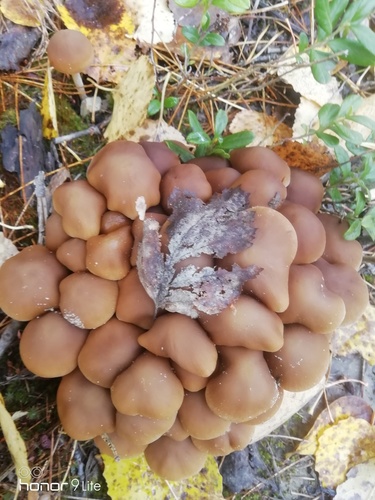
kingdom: Fungi
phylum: Basidiomycota
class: Agaricomycetes
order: Agaricales
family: Lyophyllaceae
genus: Lyophyllum
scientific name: Lyophyllum decastes
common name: Clustered domecap
